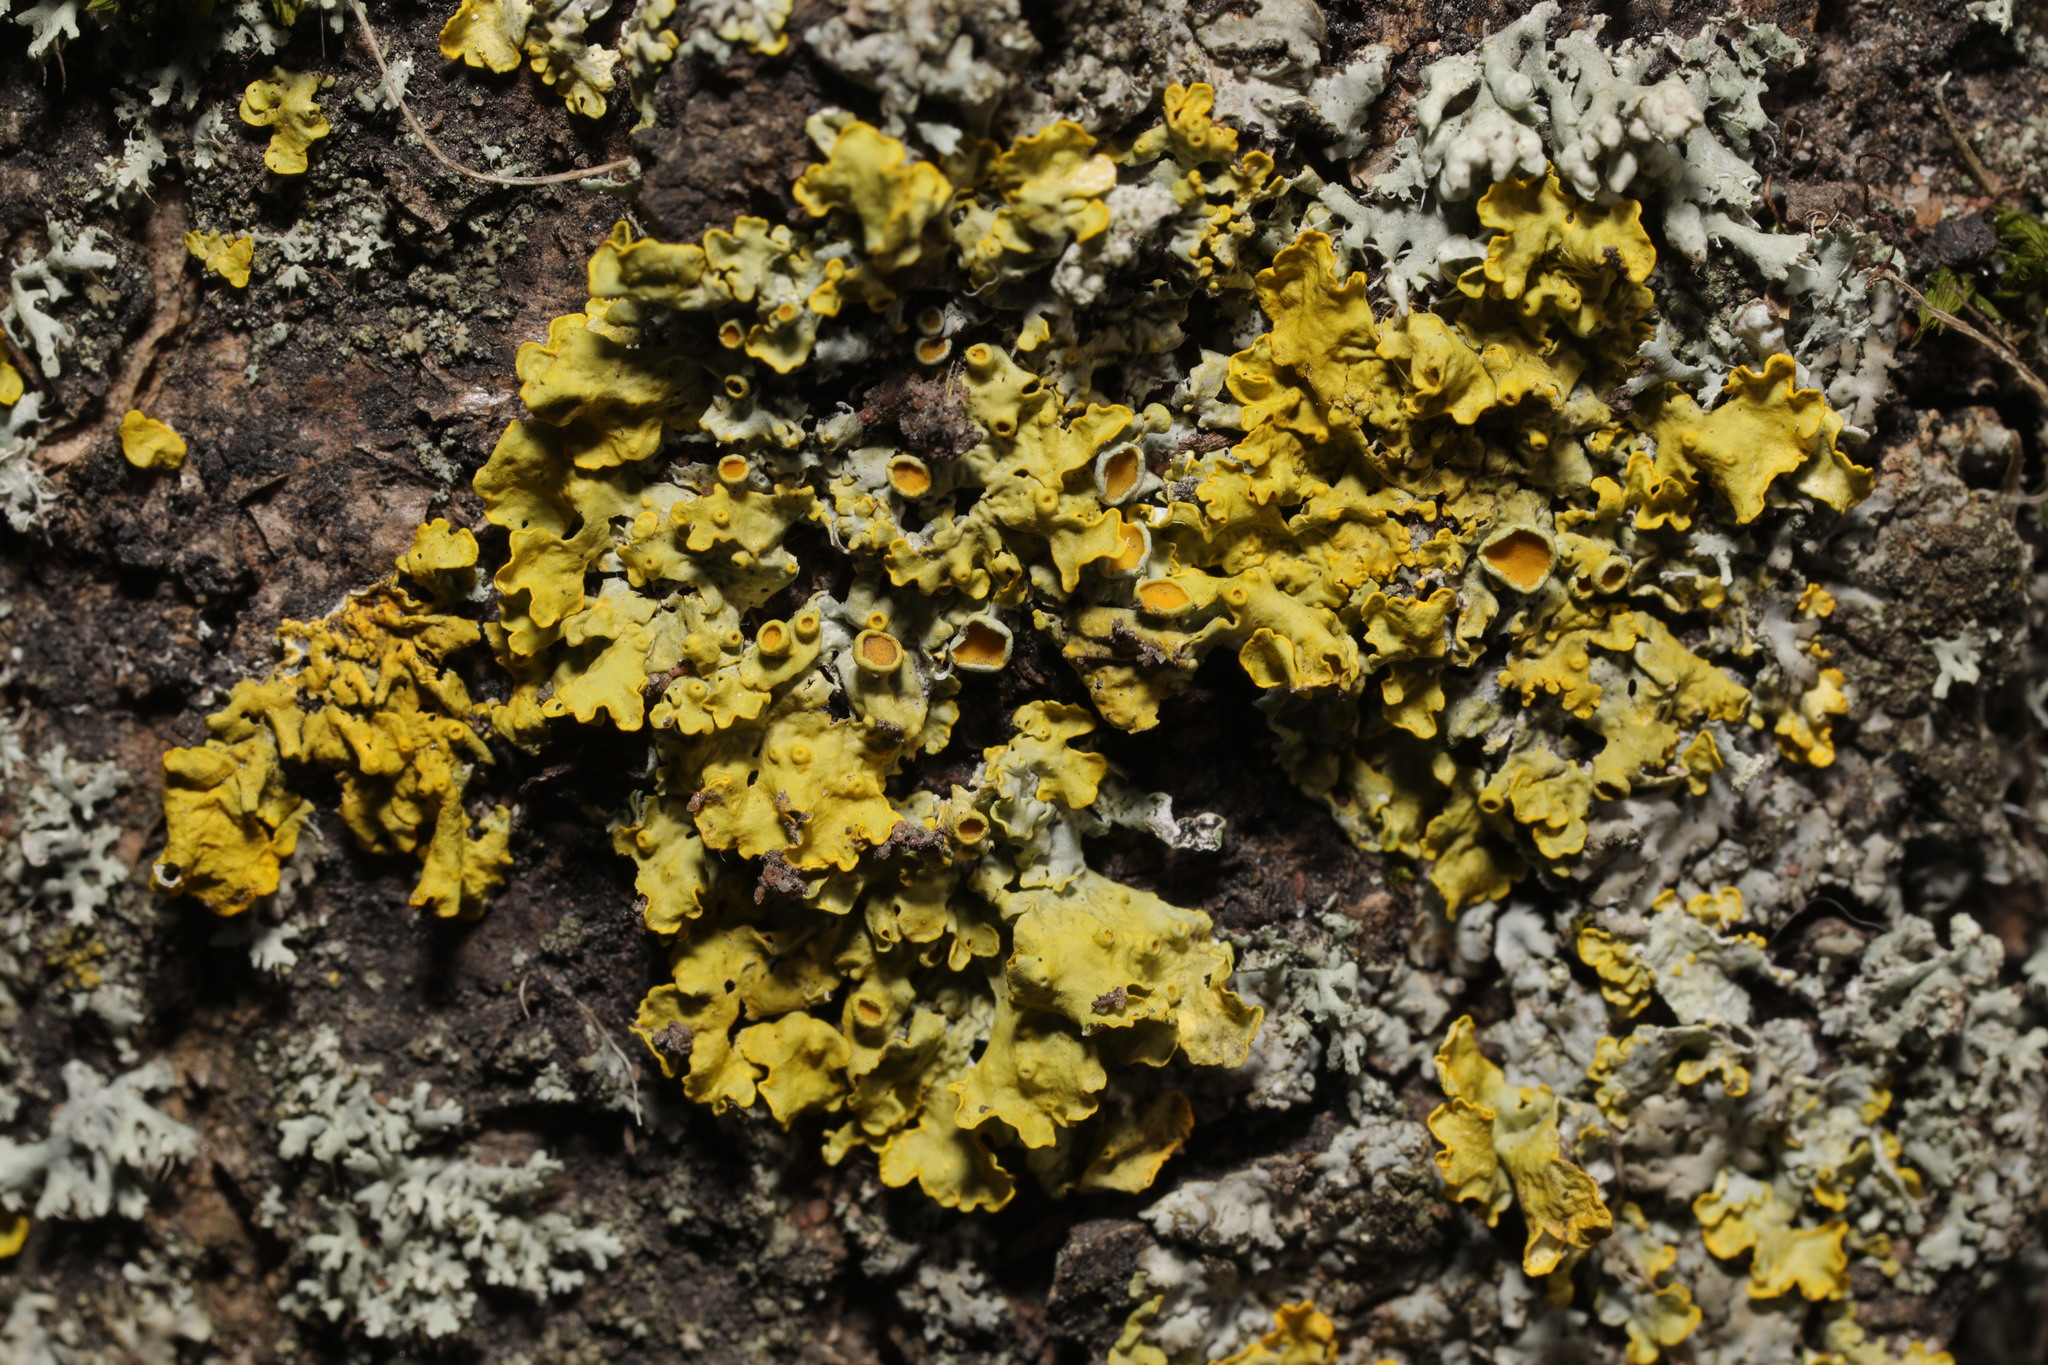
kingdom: Fungi
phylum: Ascomycota
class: Lecanoromycetes
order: Teloschistales
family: Teloschistaceae
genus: Xanthoria
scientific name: Xanthoria parietina
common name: Common orange lichen
